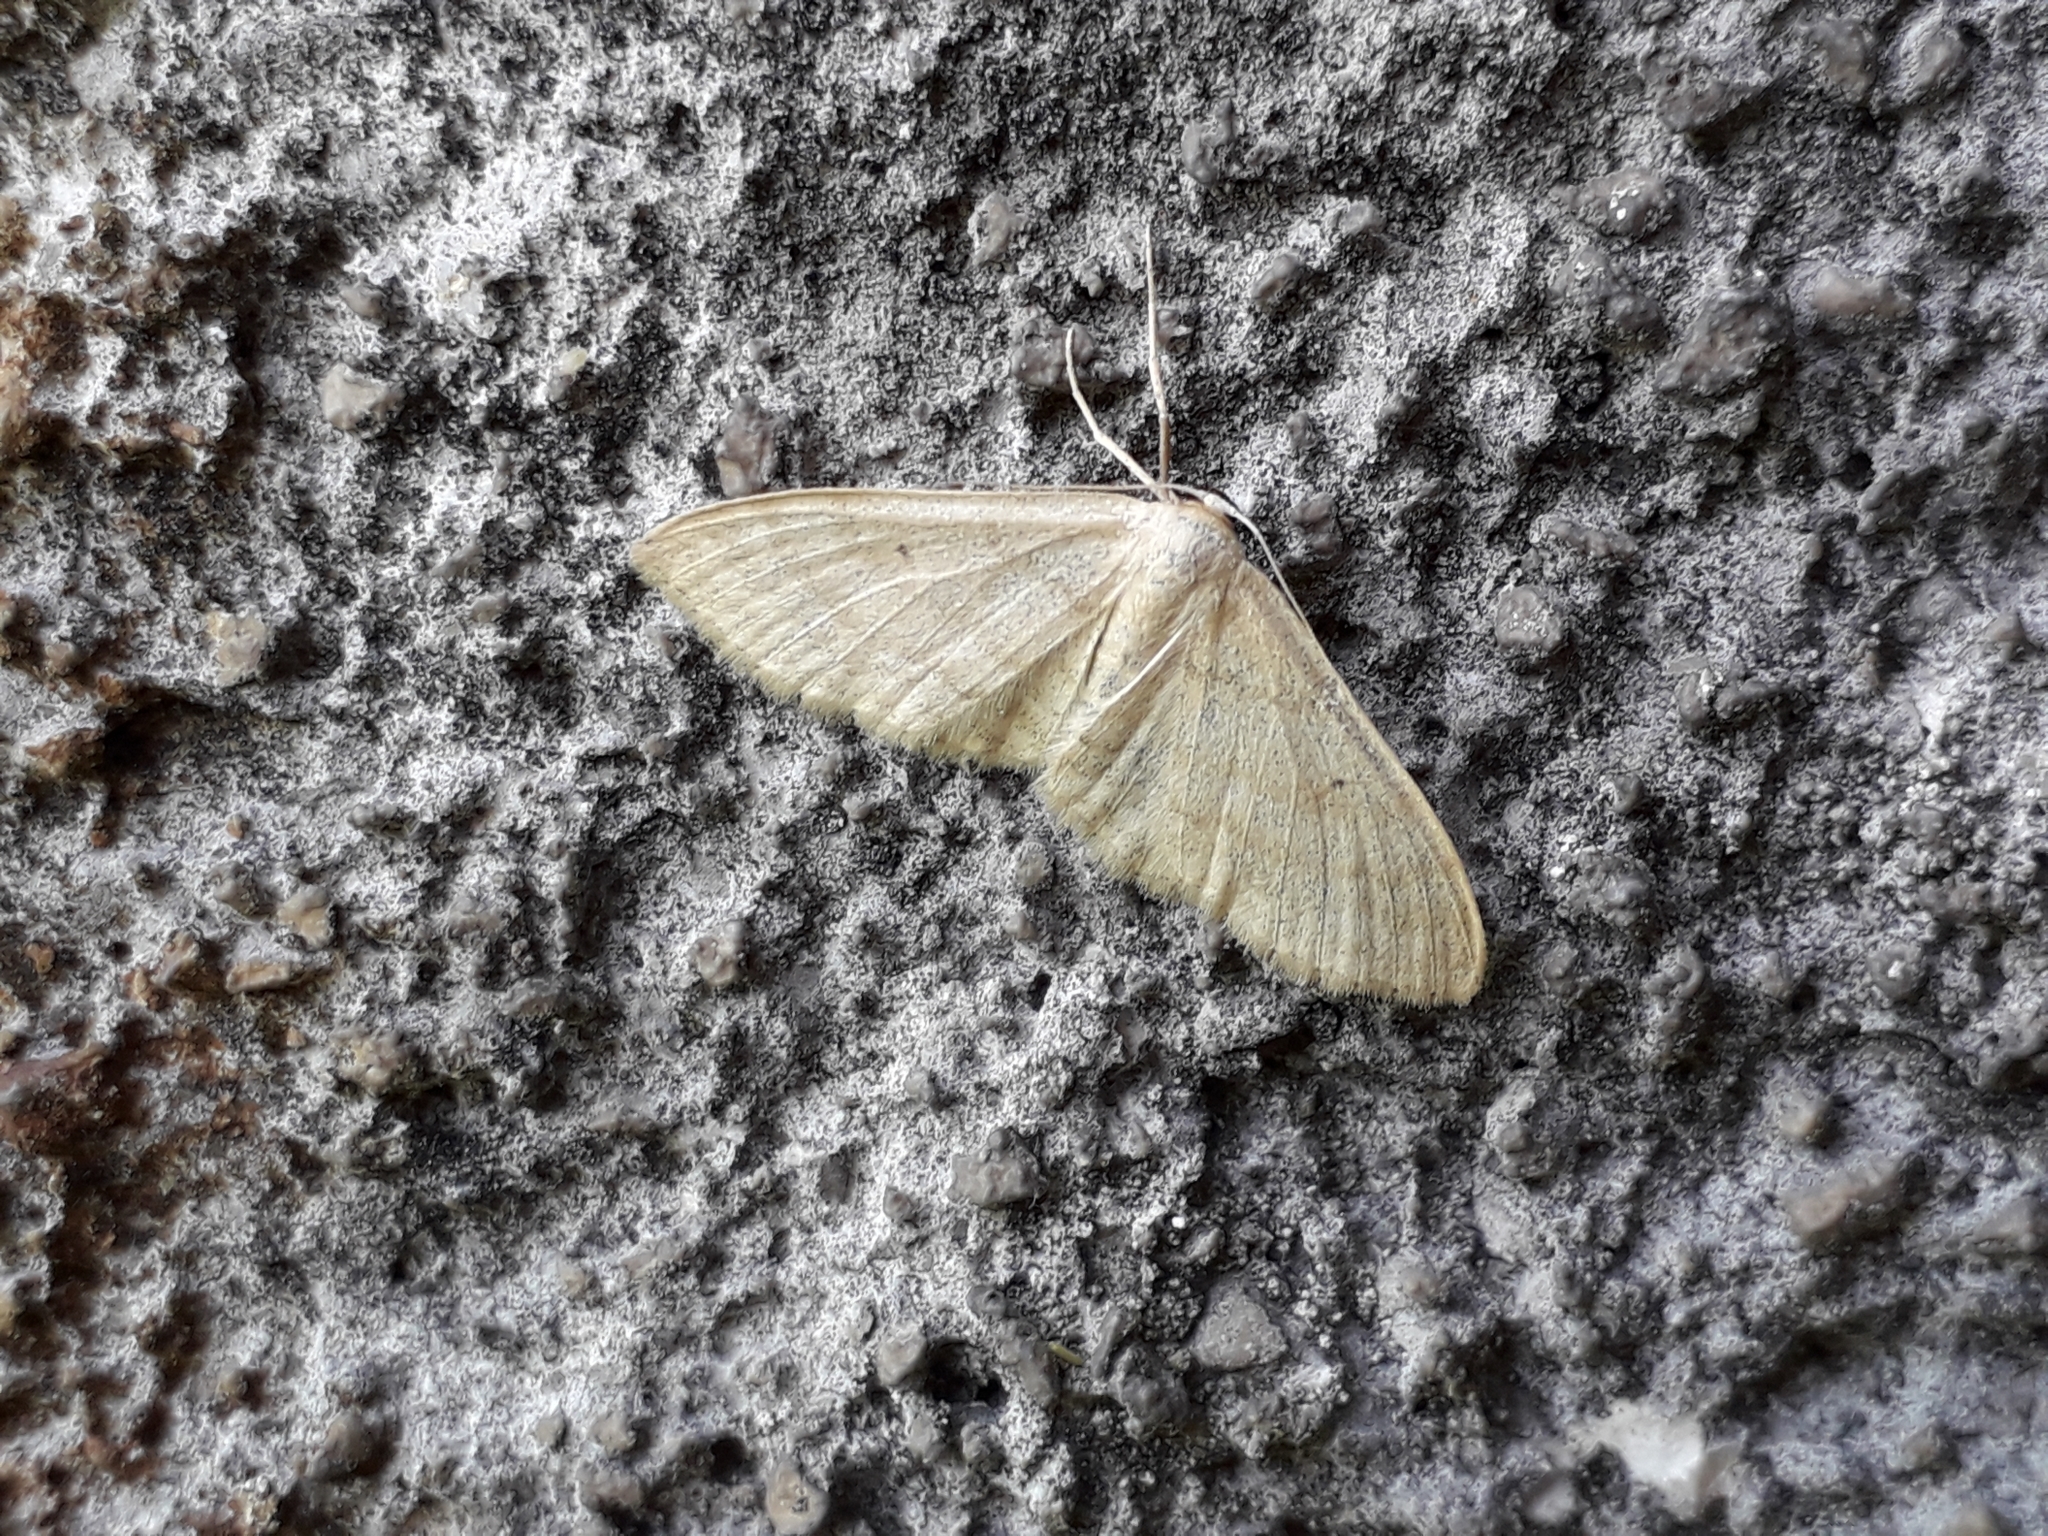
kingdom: Animalia
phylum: Arthropoda
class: Insecta
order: Lepidoptera
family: Geometridae
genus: Idaea
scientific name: Idaea straminata
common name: Plain wave
